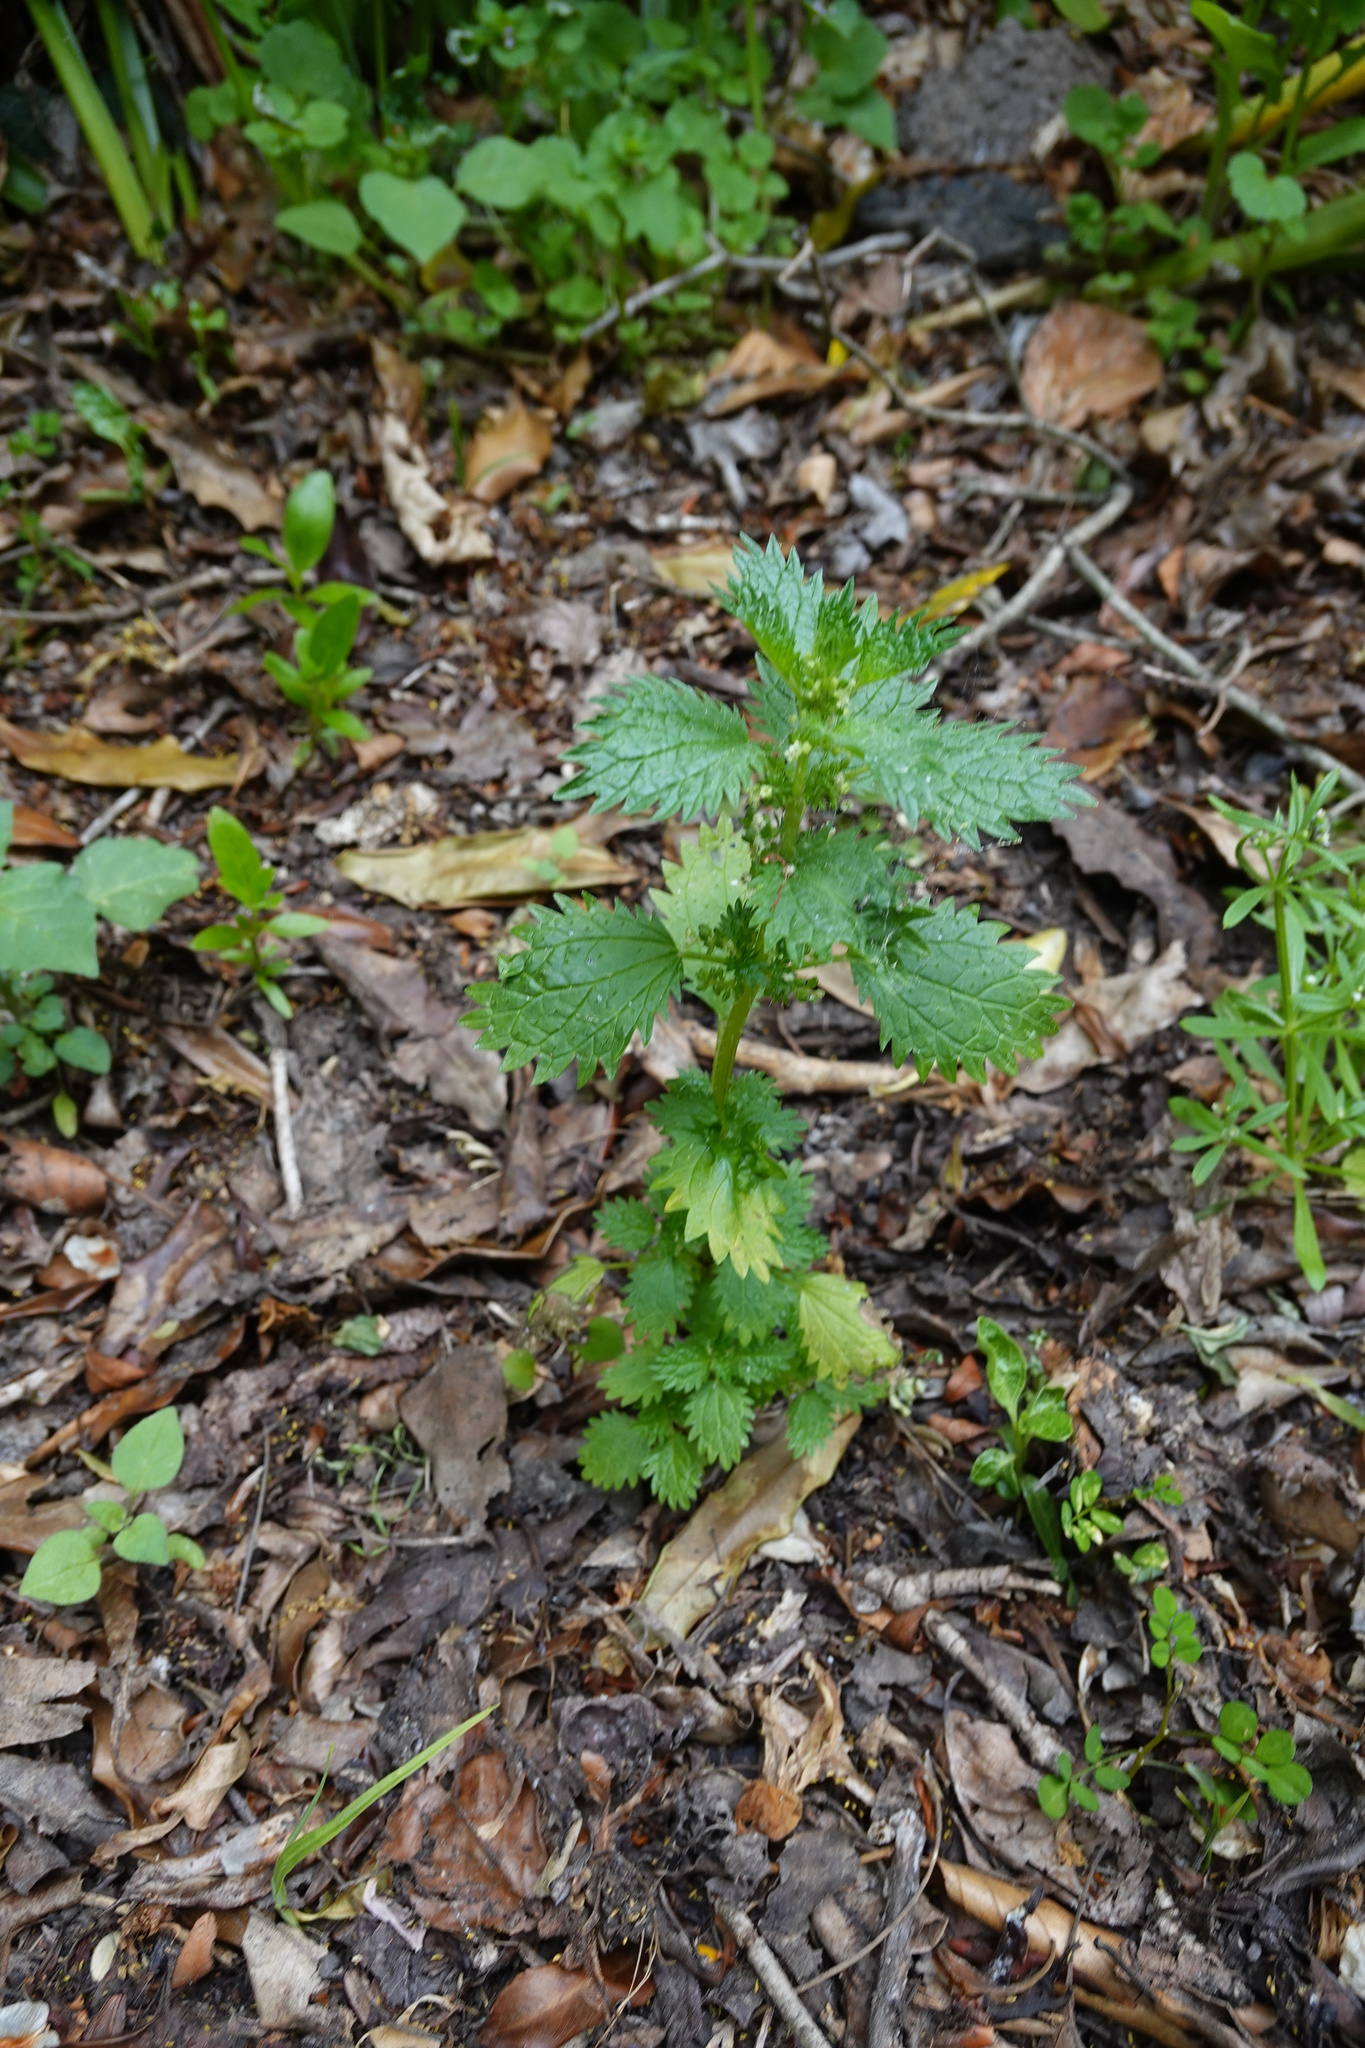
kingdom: Plantae
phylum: Tracheophyta
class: Magnoliopsida
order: Rosales
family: Urticaceae
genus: Urtica
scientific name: Urtica urens
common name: Dwarf nettle
